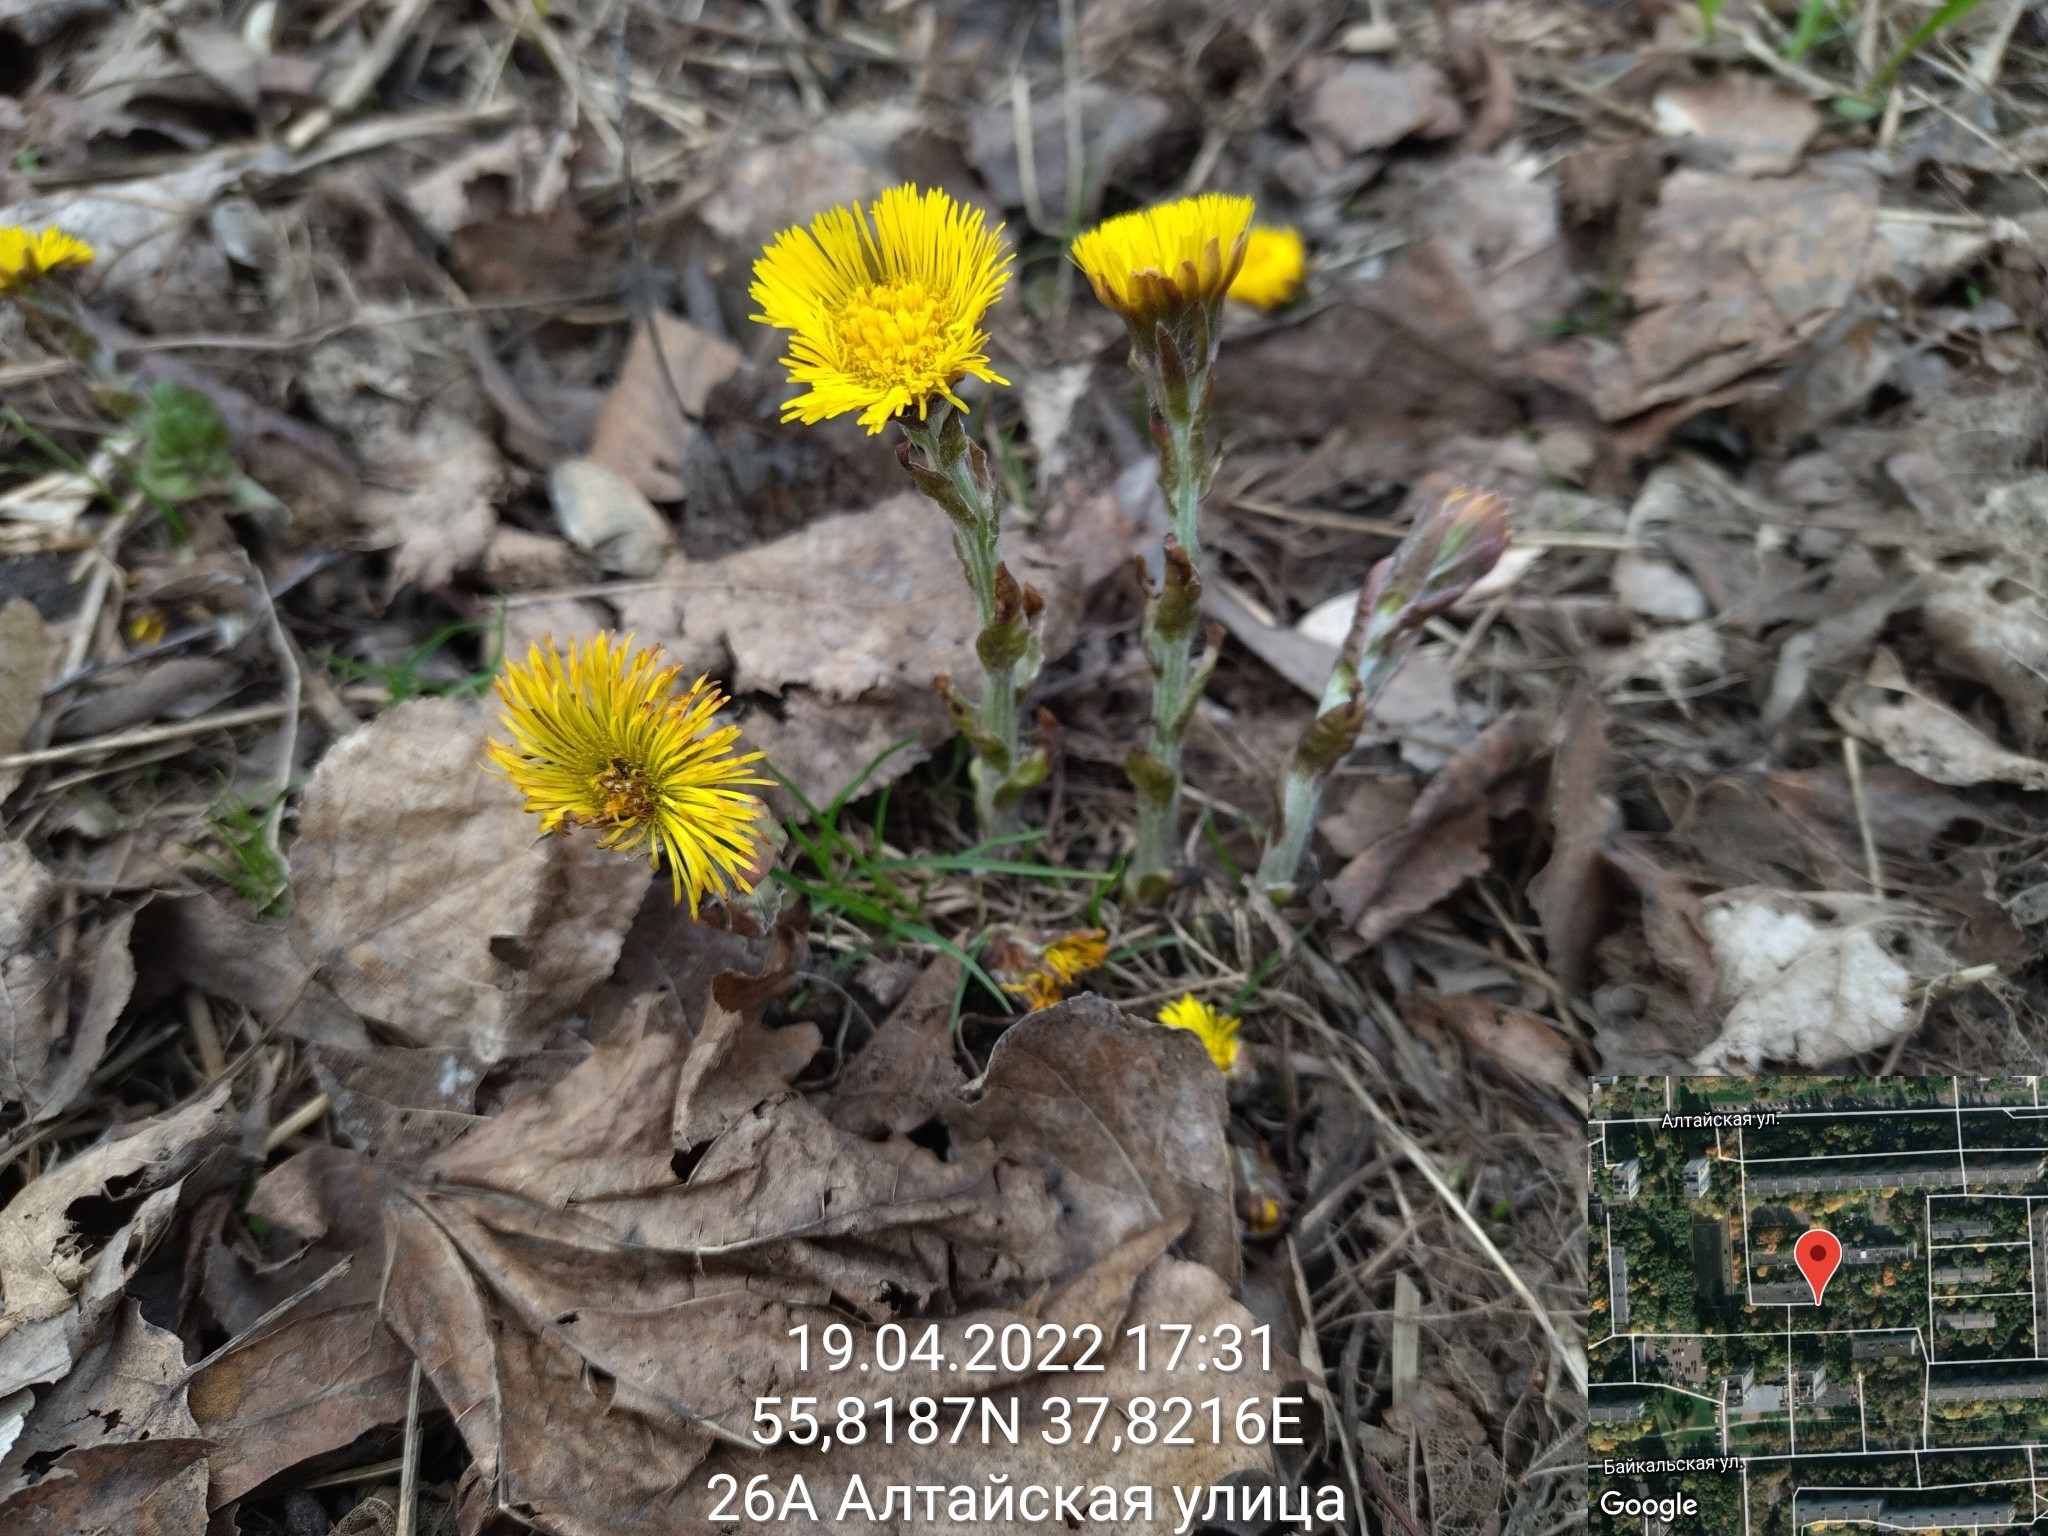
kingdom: Plantae
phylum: Tracheophyta
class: Magnoliopsida
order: Asterales
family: Asteraceae
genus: Tussilago
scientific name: Tussilago farfara
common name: Coltsfoot
